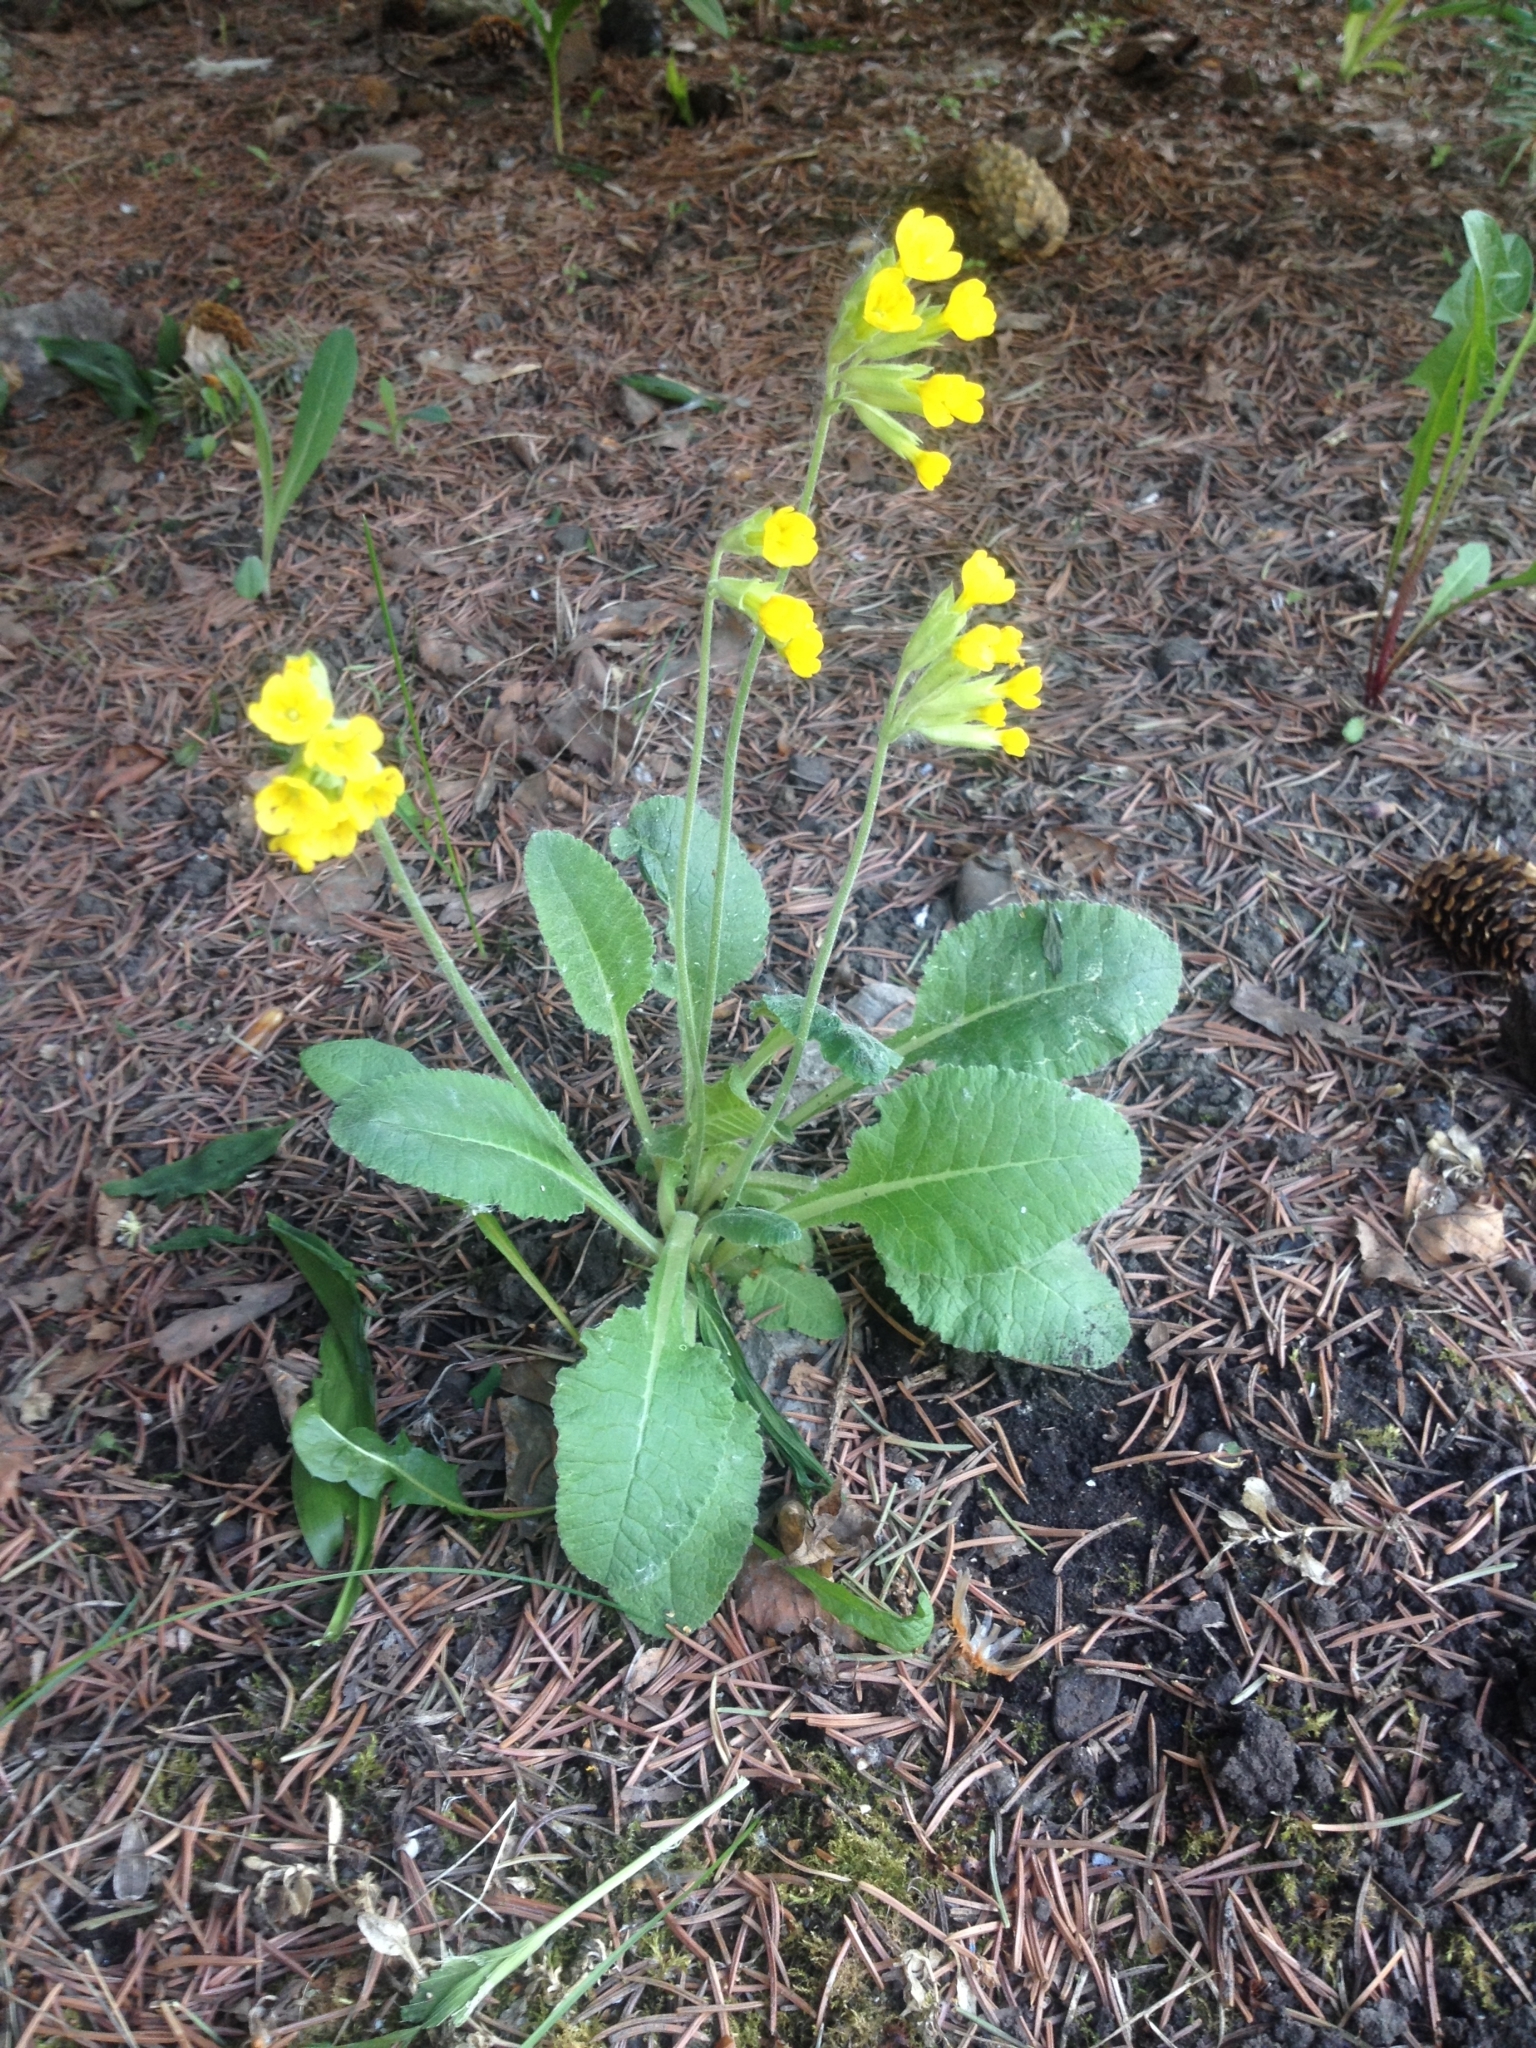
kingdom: Plantae
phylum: Tracheophyta
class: Magnoliopsida
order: Ericales
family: Primulaceae
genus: Primula
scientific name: Primula veris
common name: Cowslip
